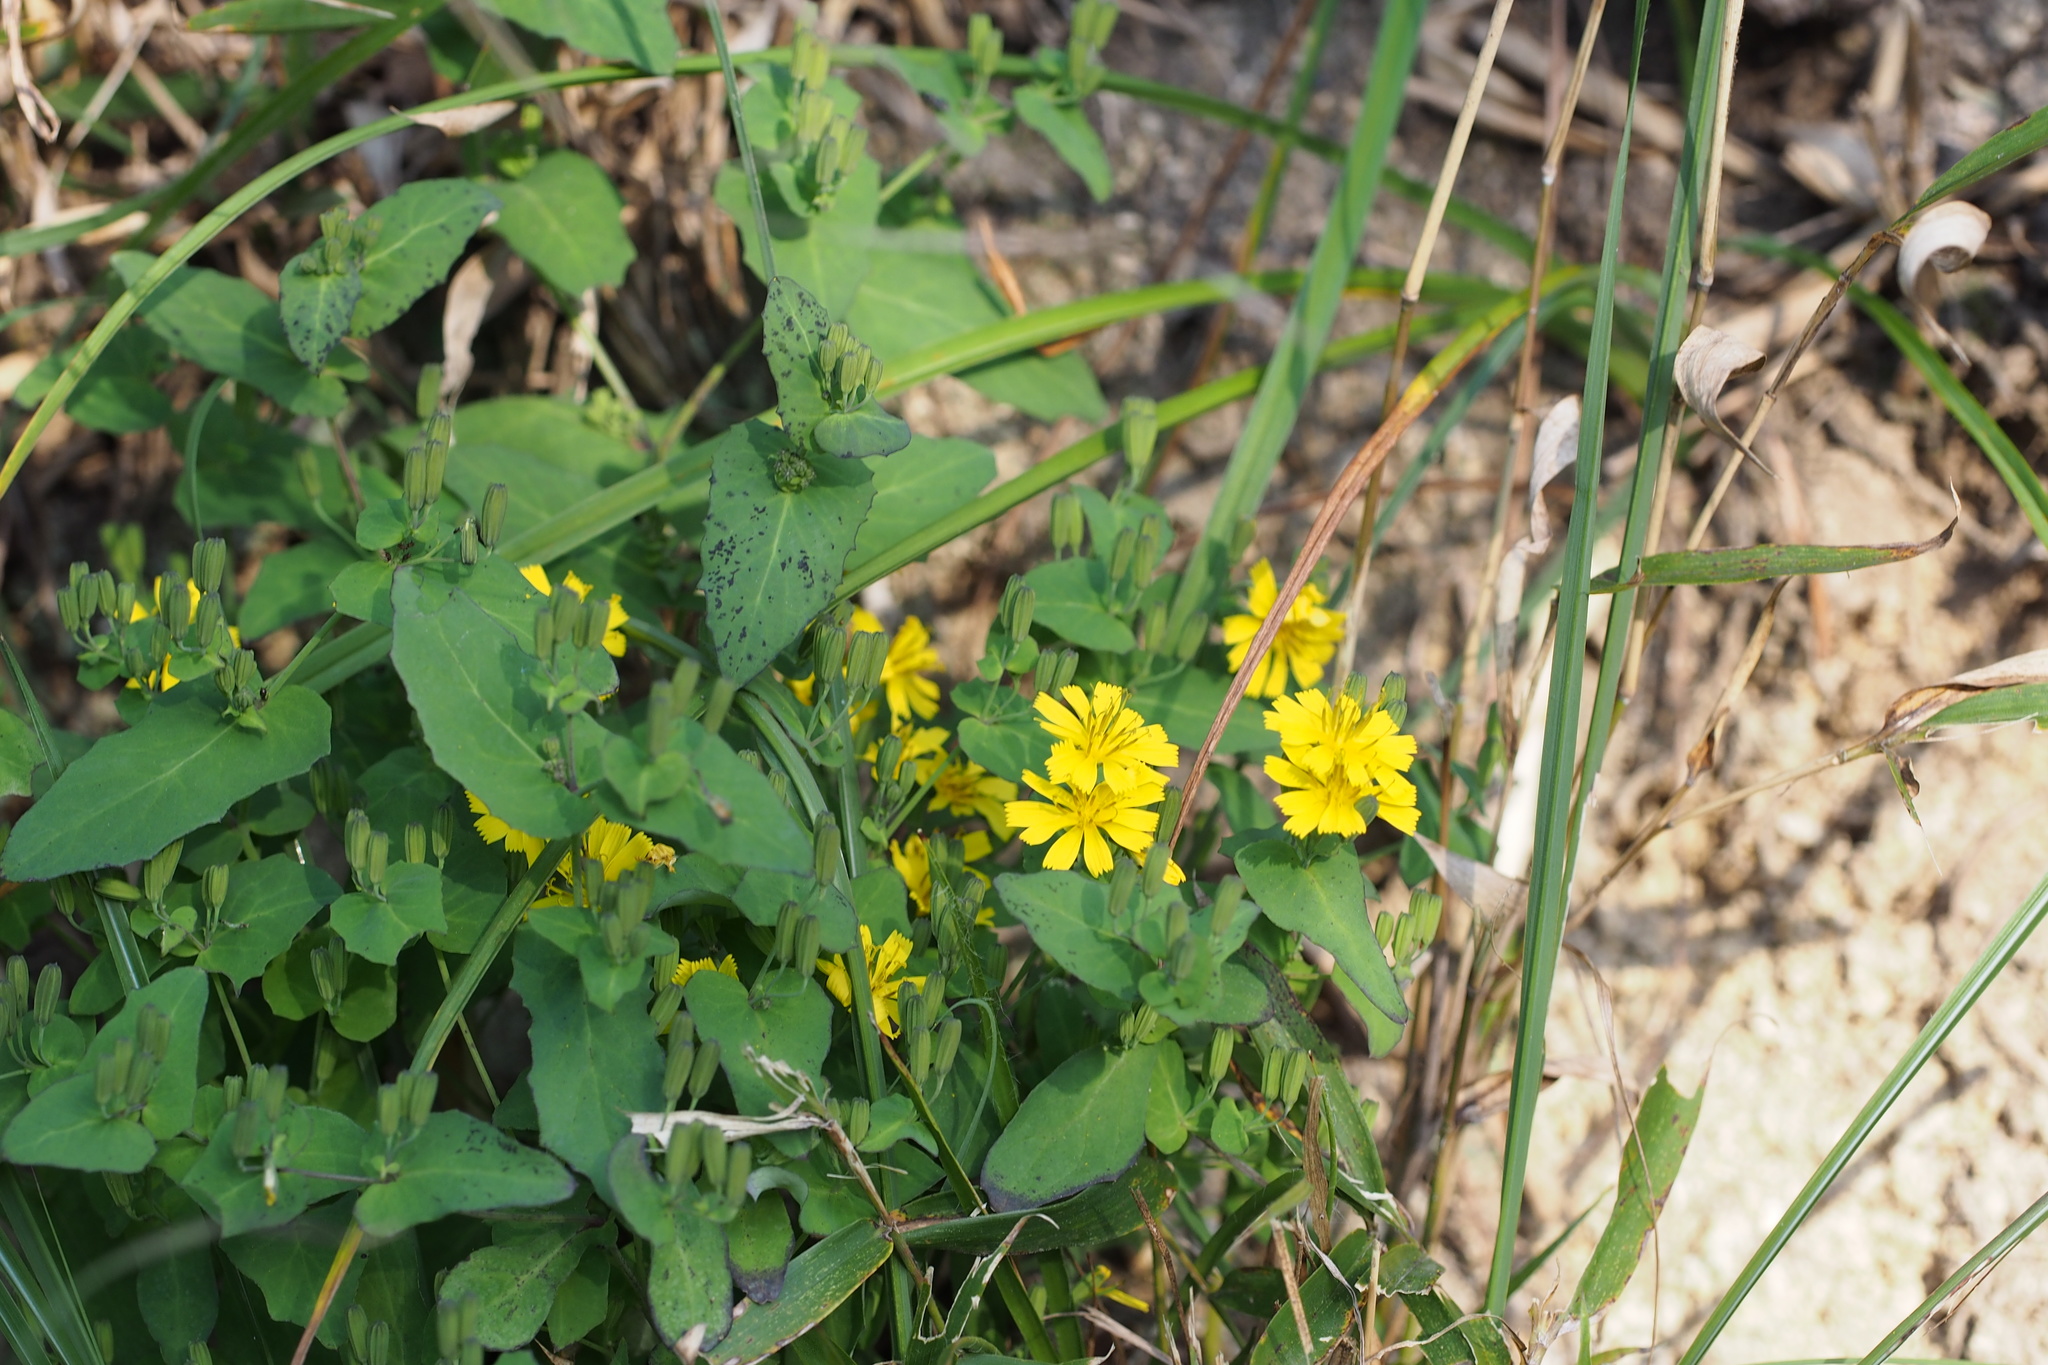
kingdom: Plantae
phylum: Tracheophyta
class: Magnoliopsida
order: Asterales
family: Asteraceae
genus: Crepidiastrum
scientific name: Crepidiastrum denticulatum
